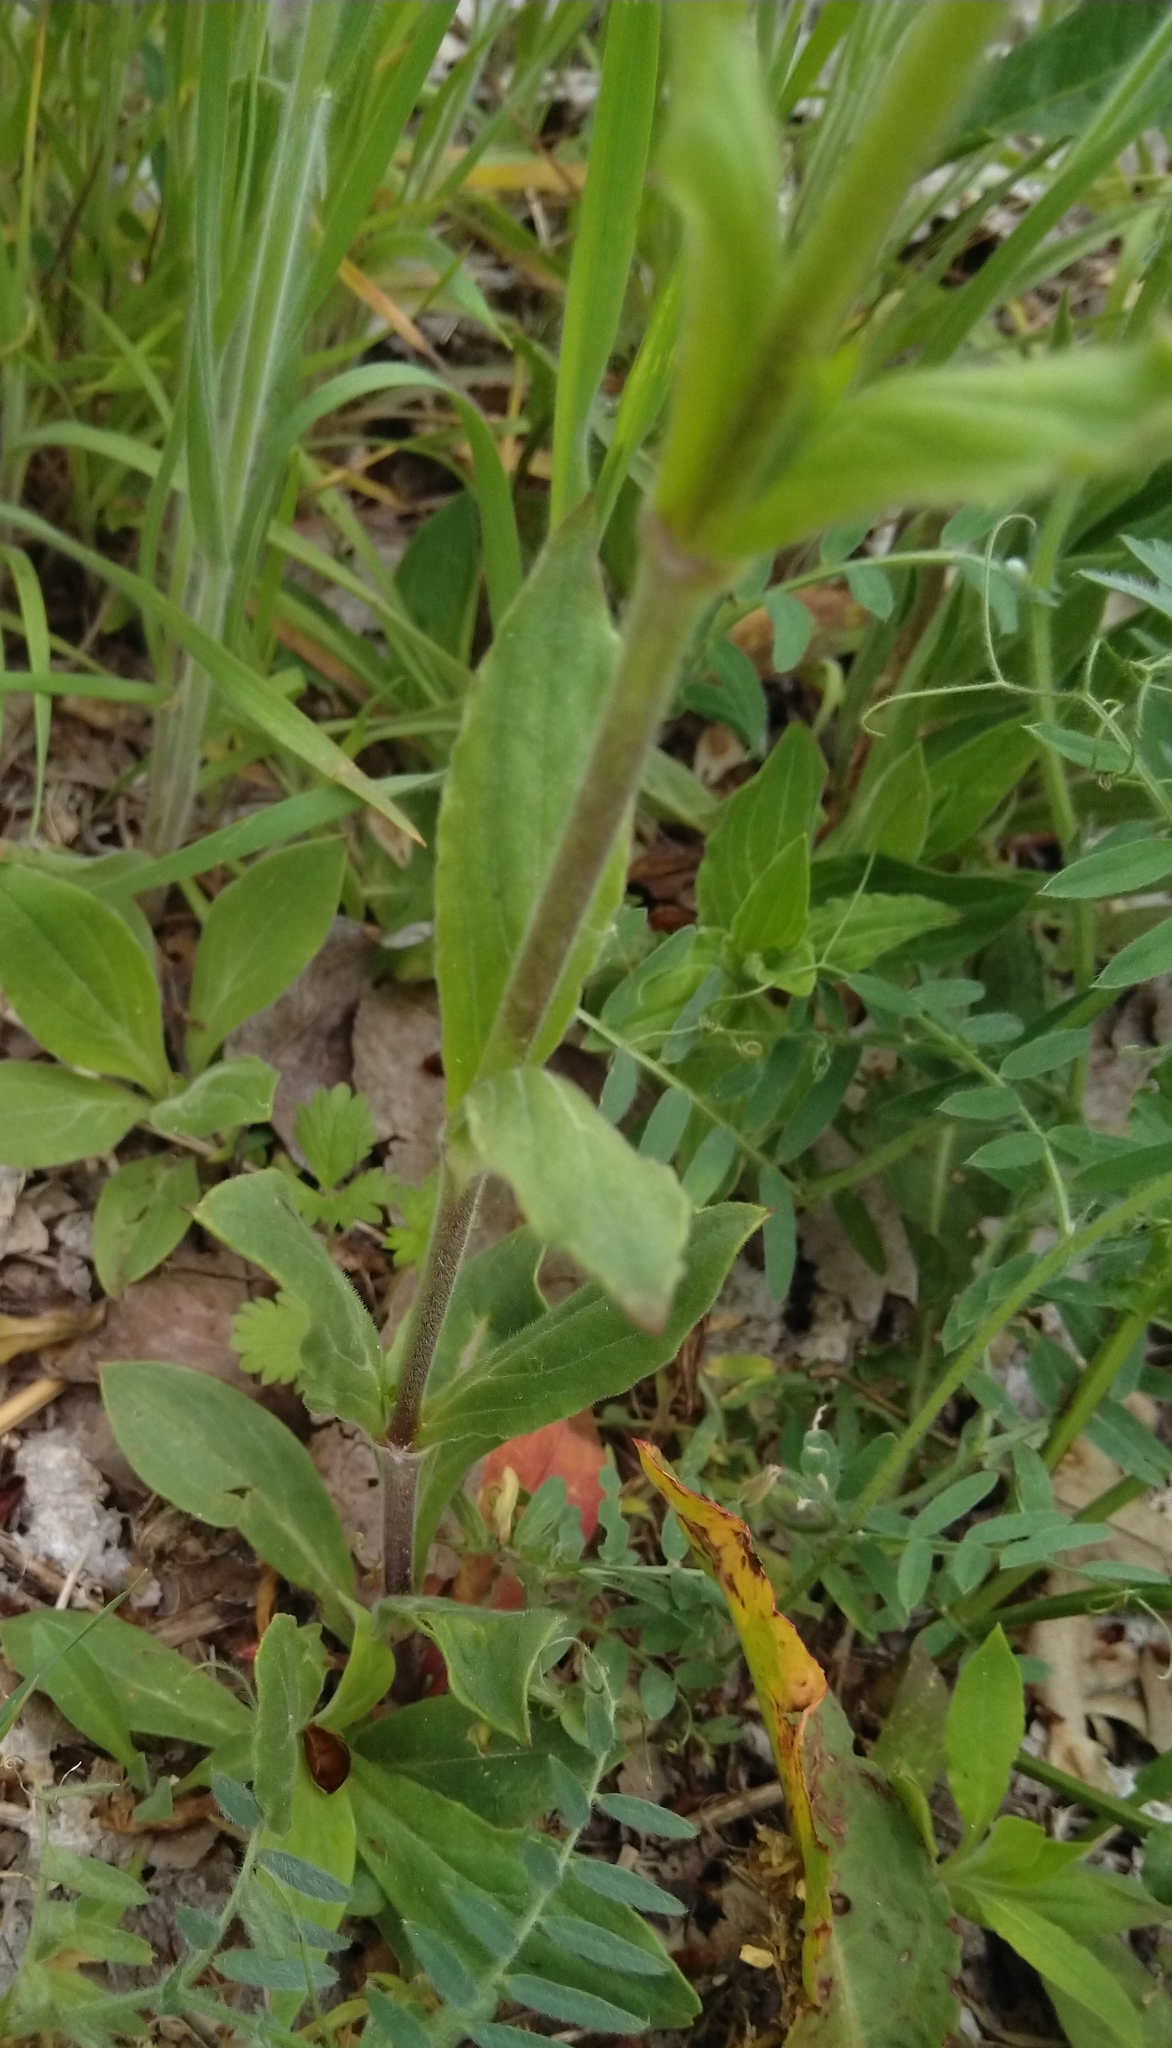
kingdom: Plantae
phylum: Tracheophyta
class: Magnoliopsida
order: Caryophyllales
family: Caryophyllaceae
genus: Silene
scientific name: Silene latifolia
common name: White campion
